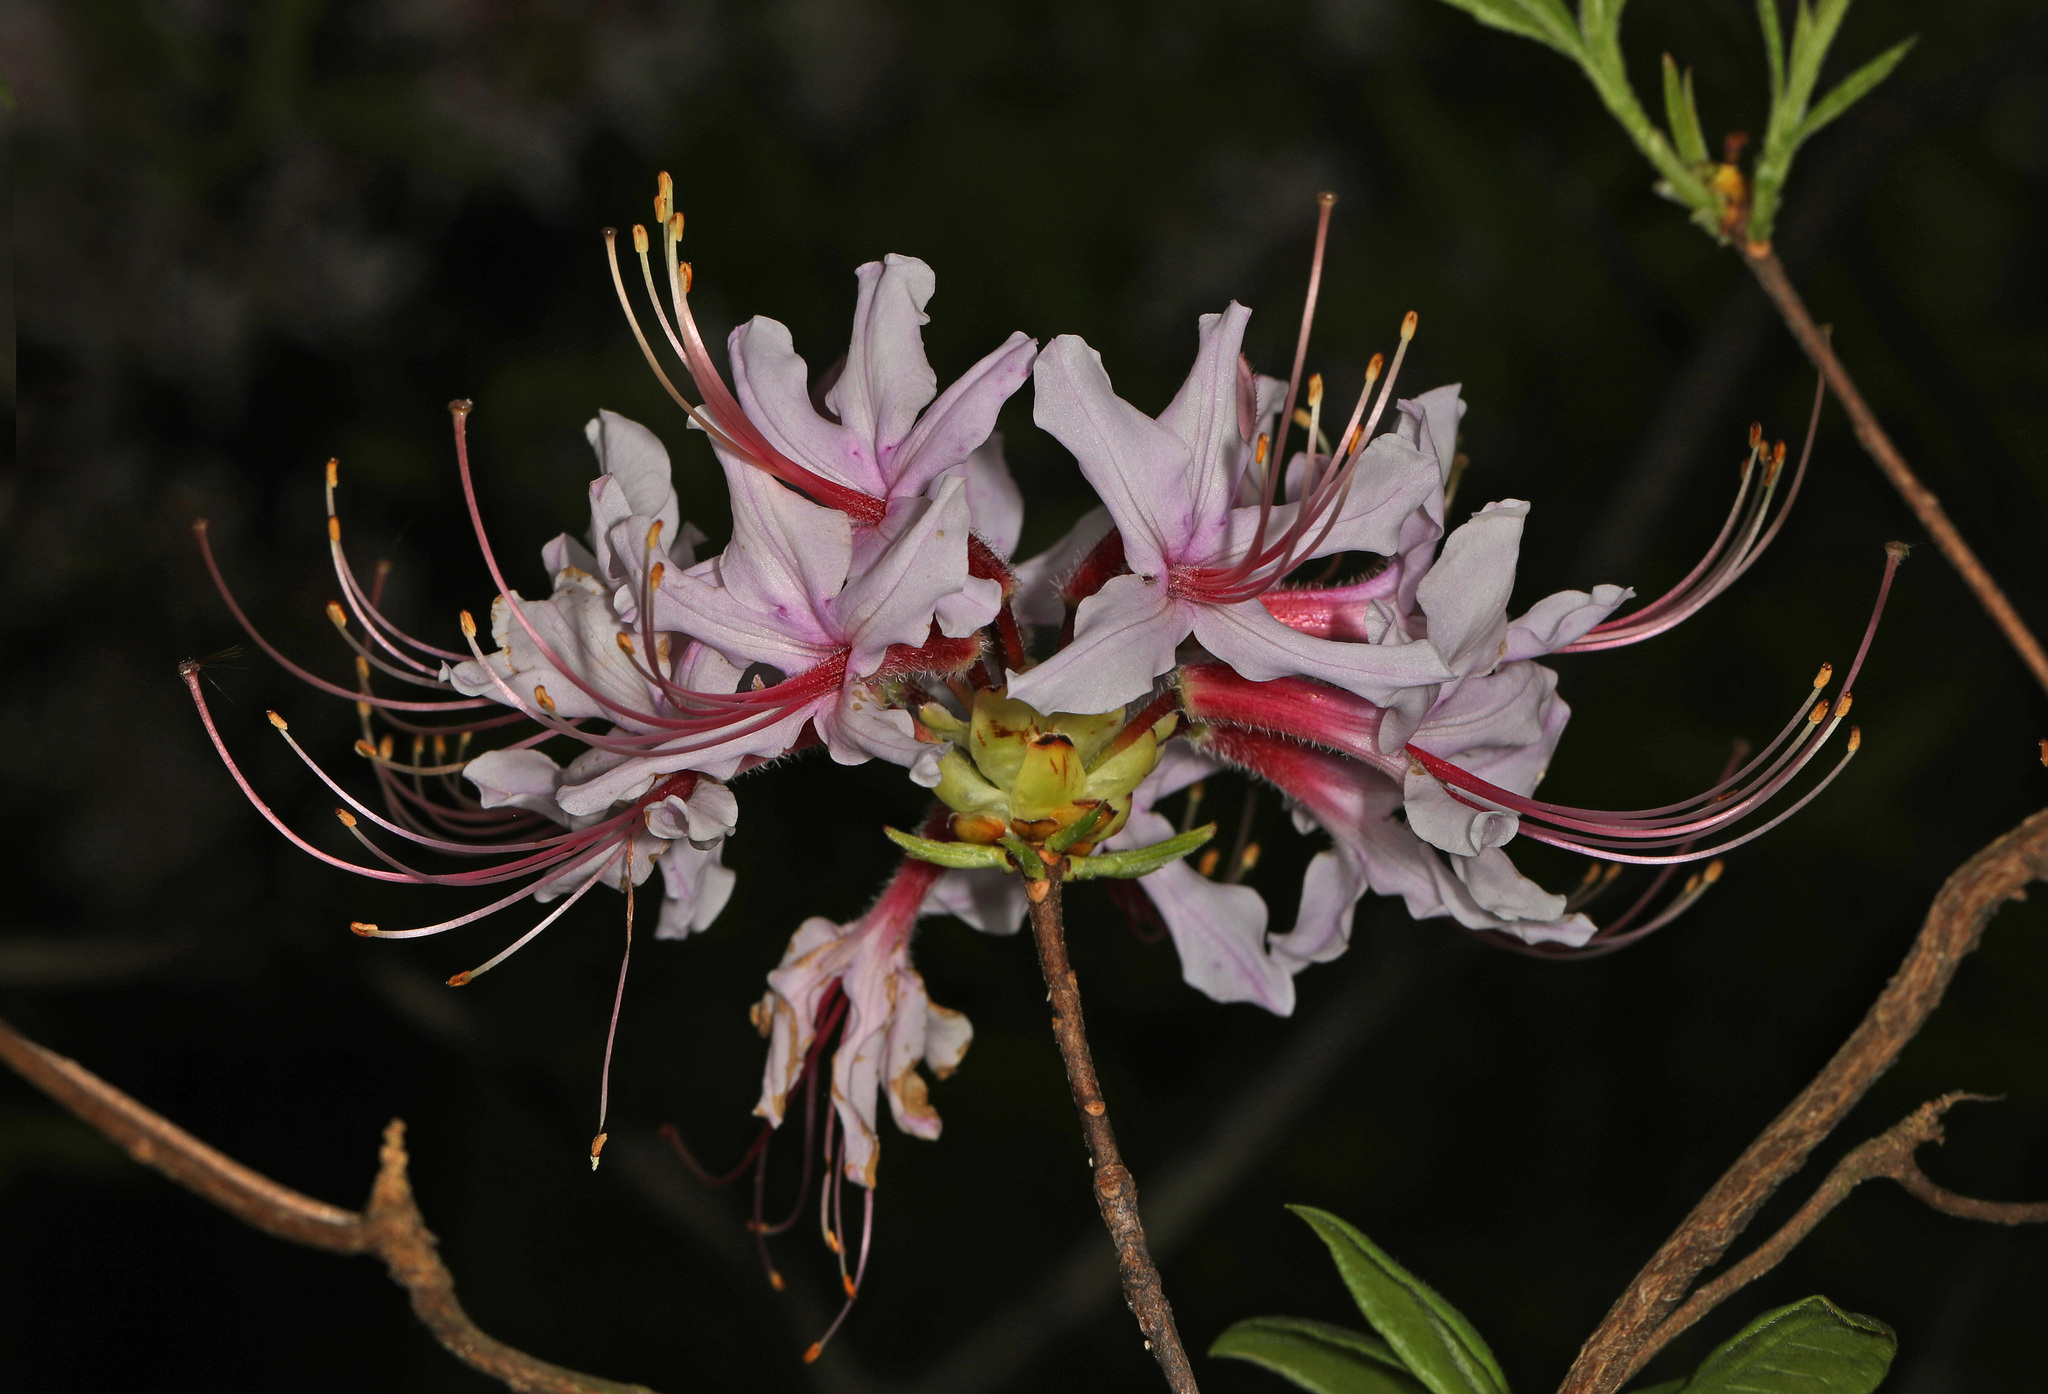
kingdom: Plantae
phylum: Tracheophyta
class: Magnoliopsida
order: Ericales
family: Ericaceae
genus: Rhododendron
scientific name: Rhododendron periclymenoides
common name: Election-pink
